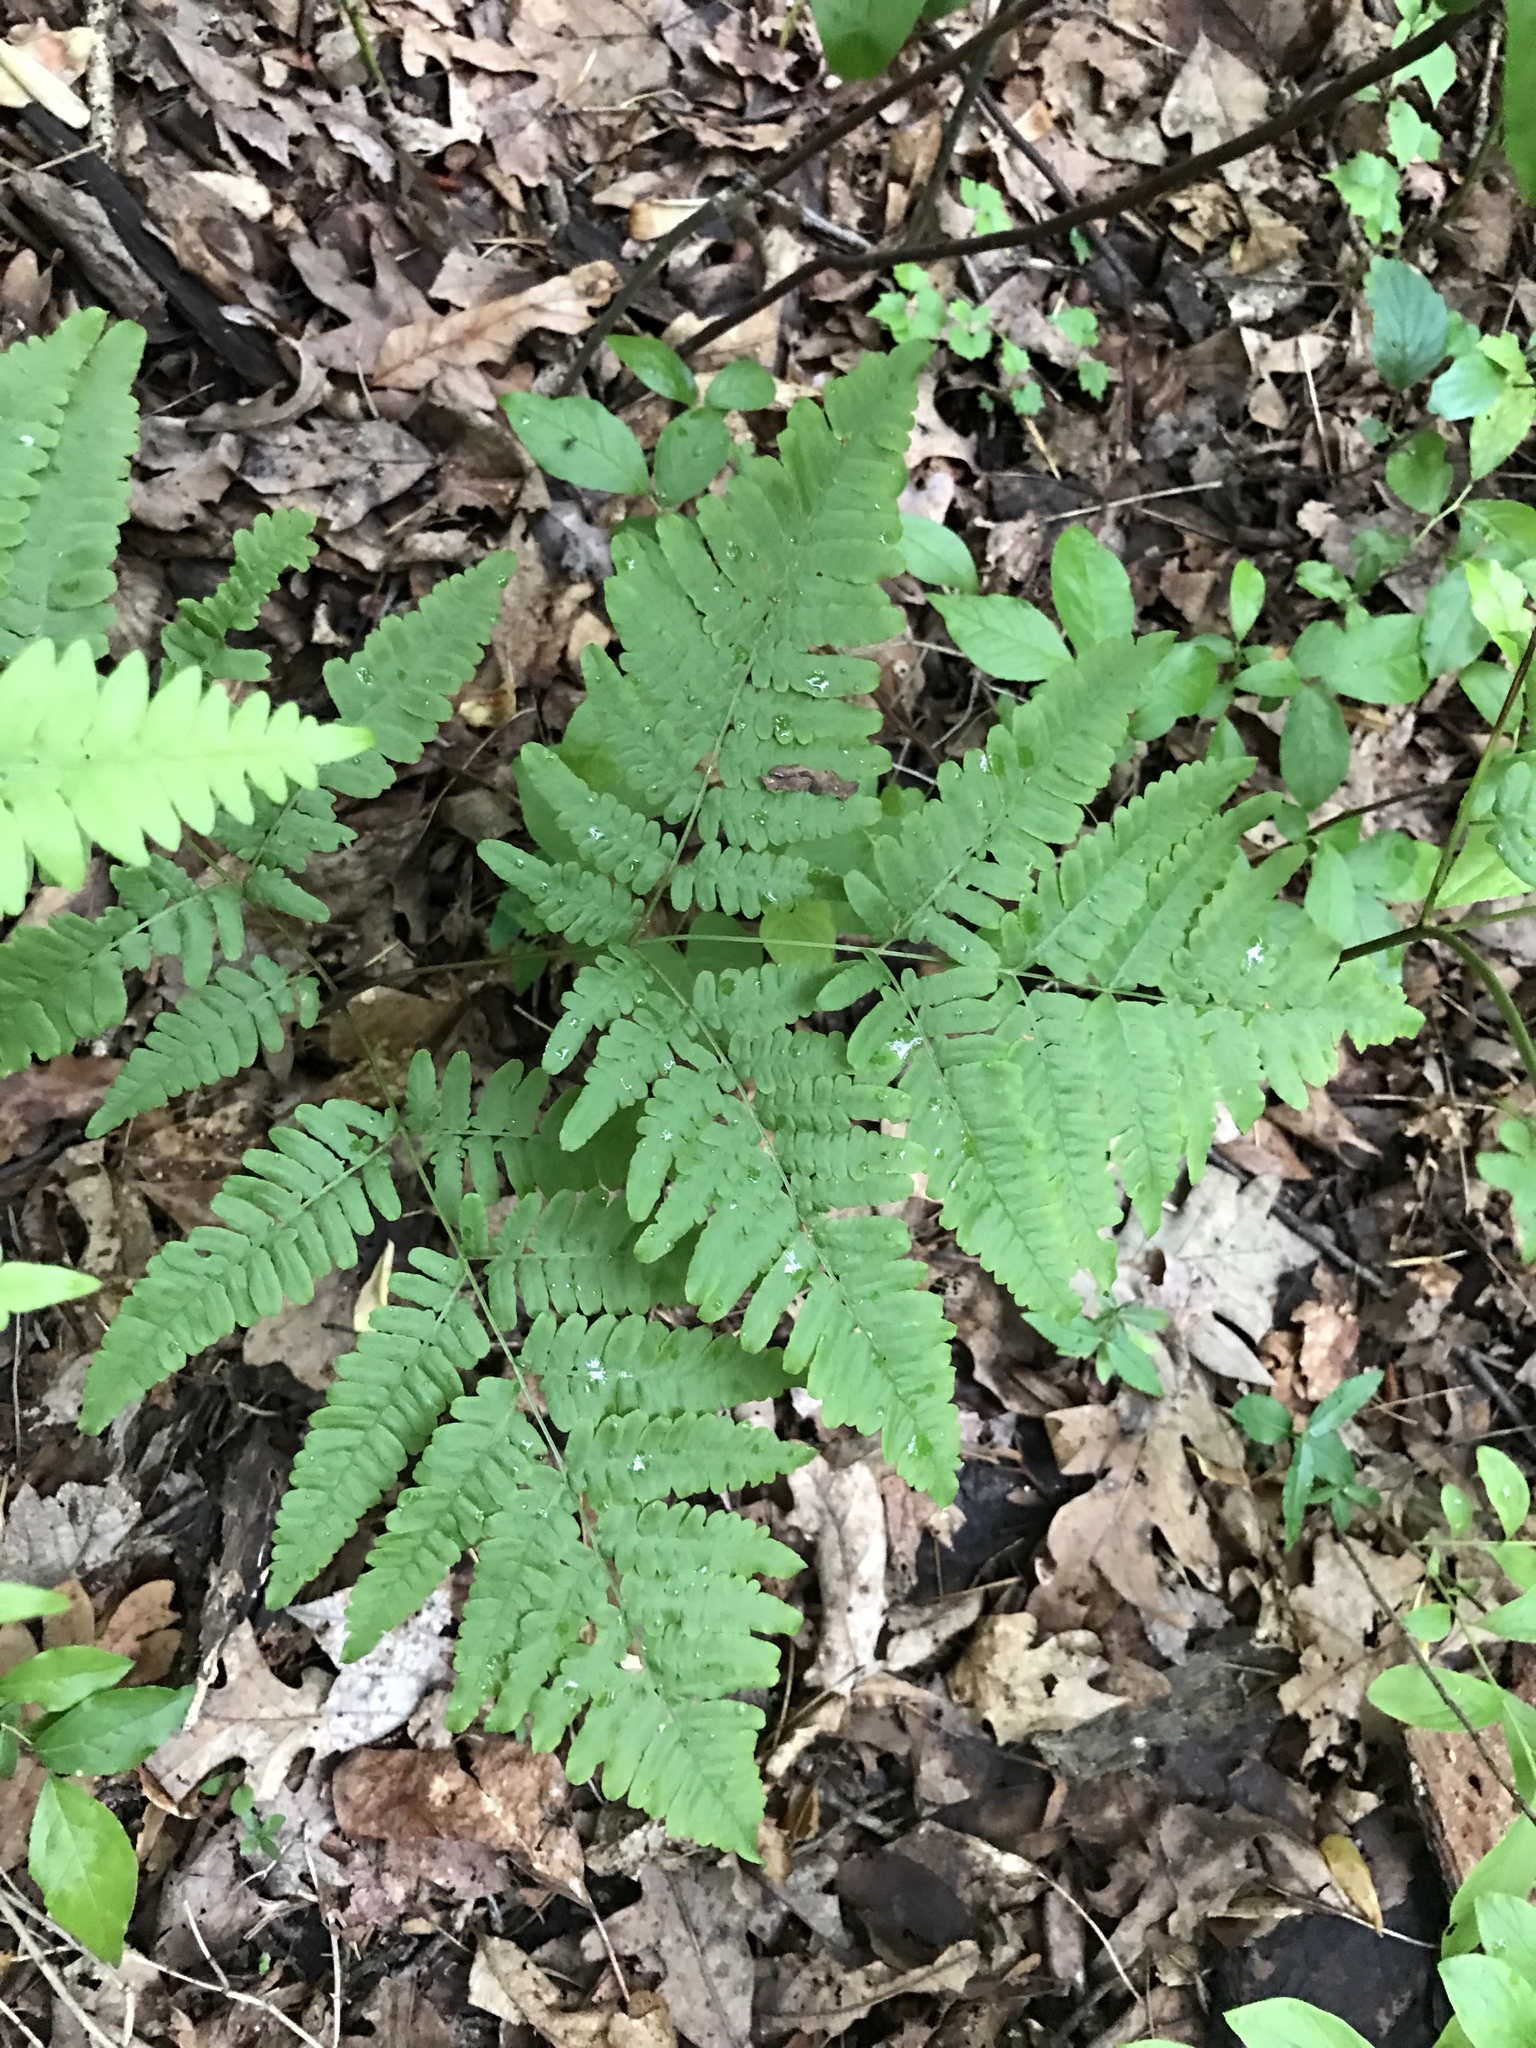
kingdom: Plantae
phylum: Tracheophyta
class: Polypodiopsida
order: Polypodiales
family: Dennstaedtiaceae
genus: Pteridium
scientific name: Pteridium aquilinum
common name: Bracken
